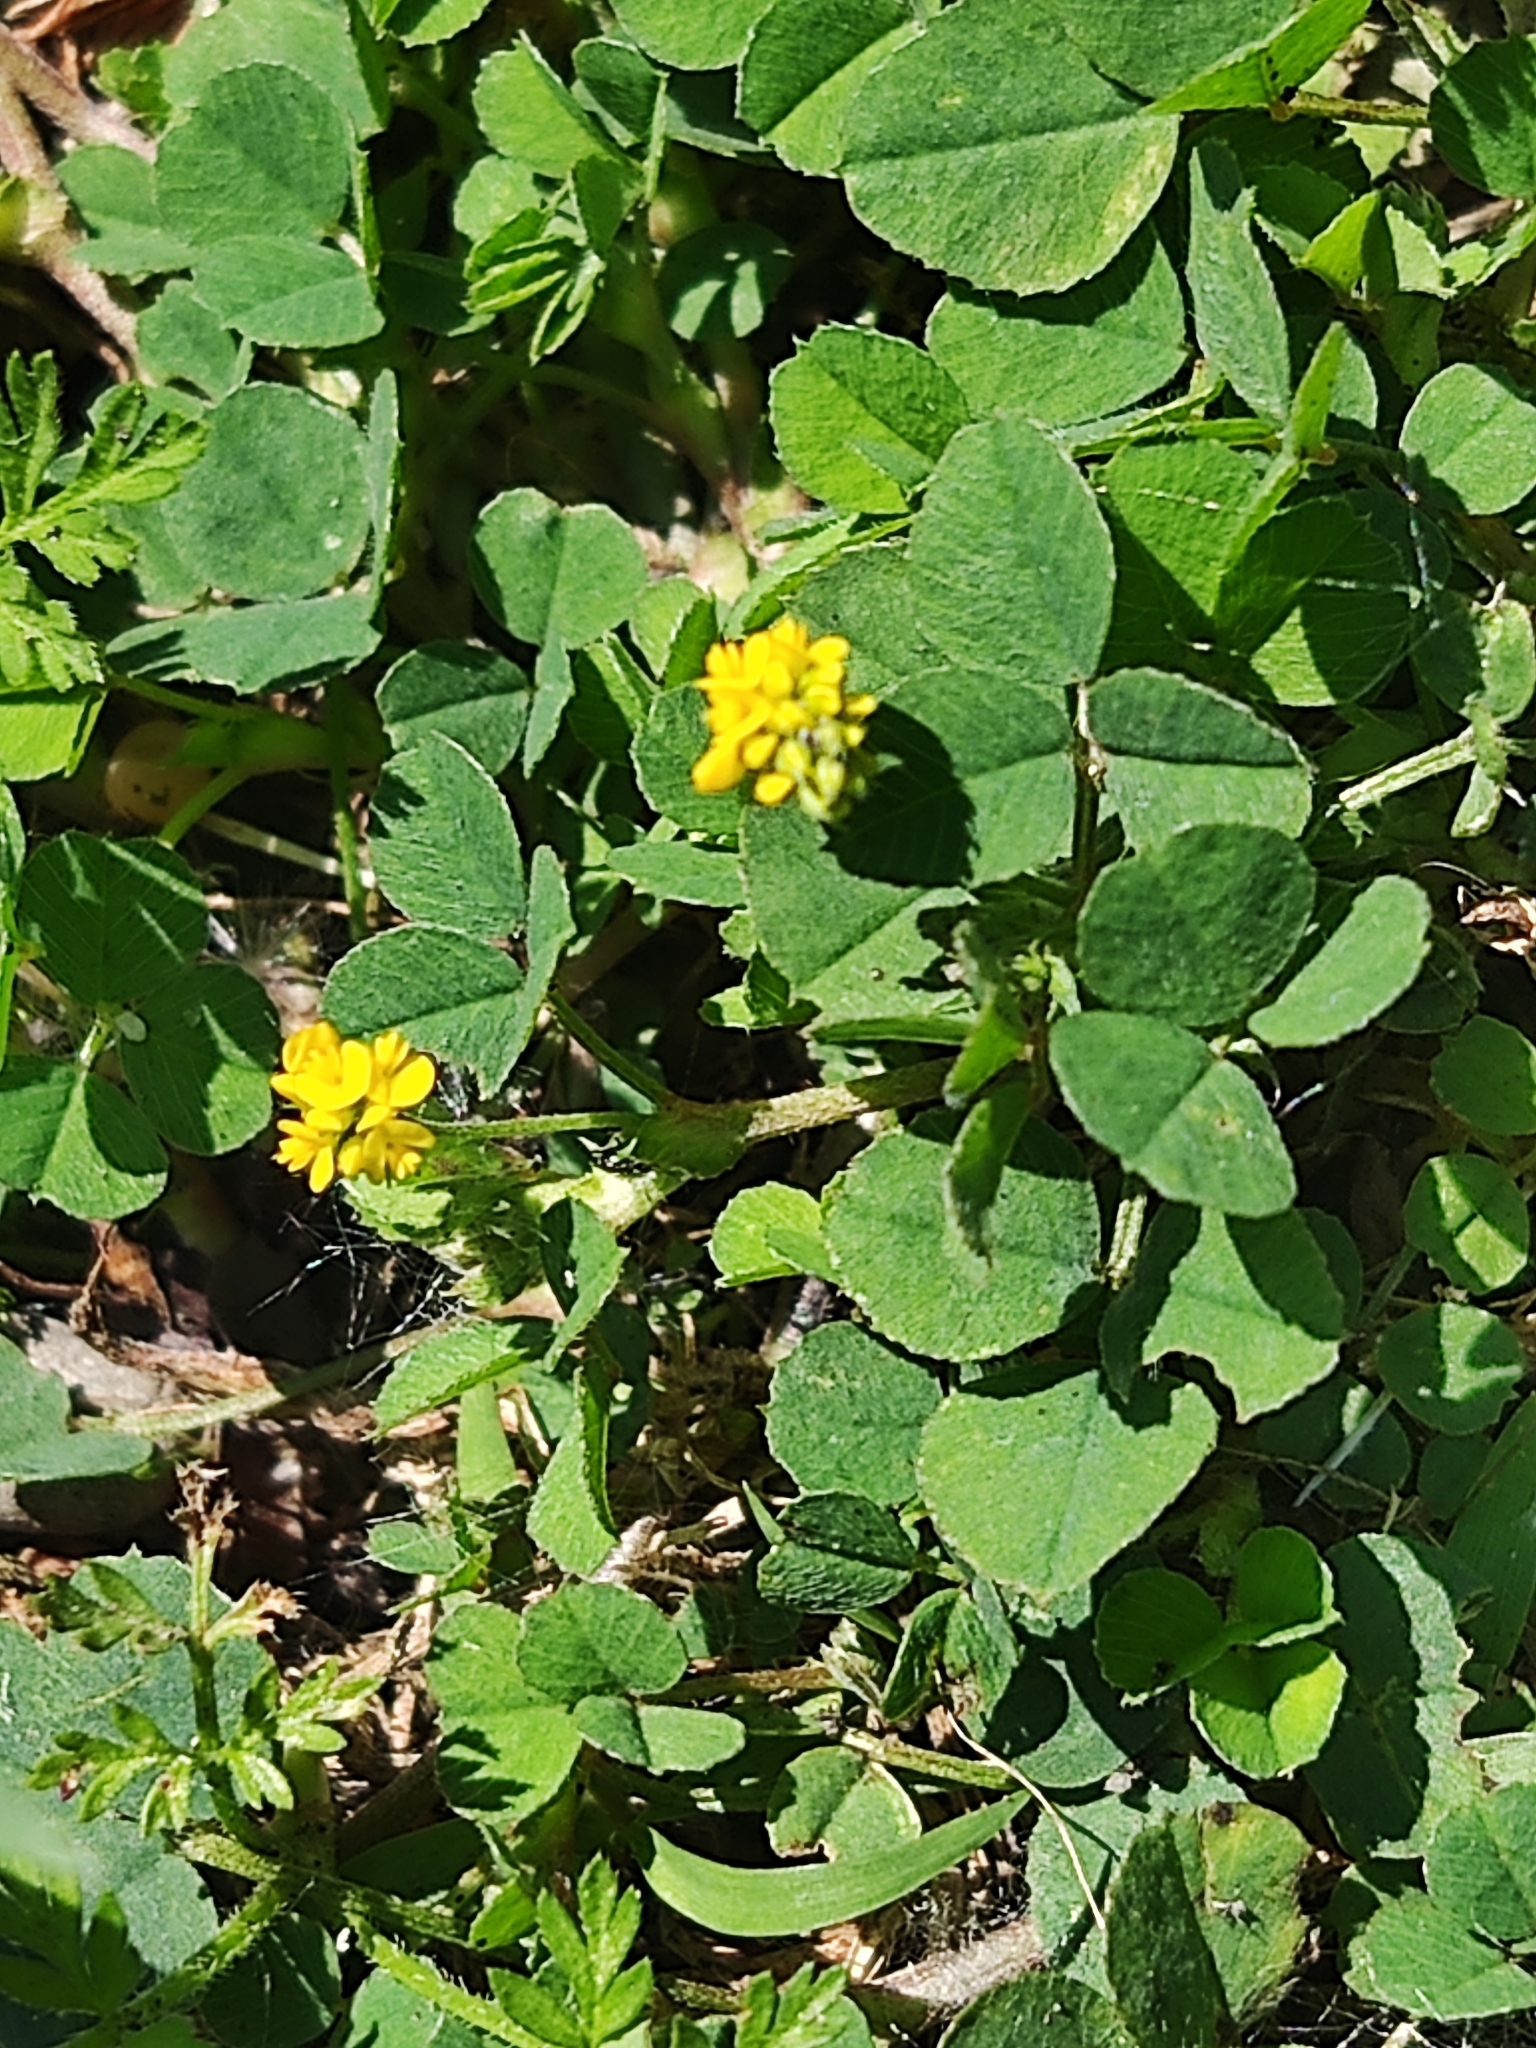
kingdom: Plantae
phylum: Tracheophyta
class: Magnoliopsida
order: Fabales
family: Fabaceae
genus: Medicago
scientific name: Medicago lupulina
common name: Black medick
